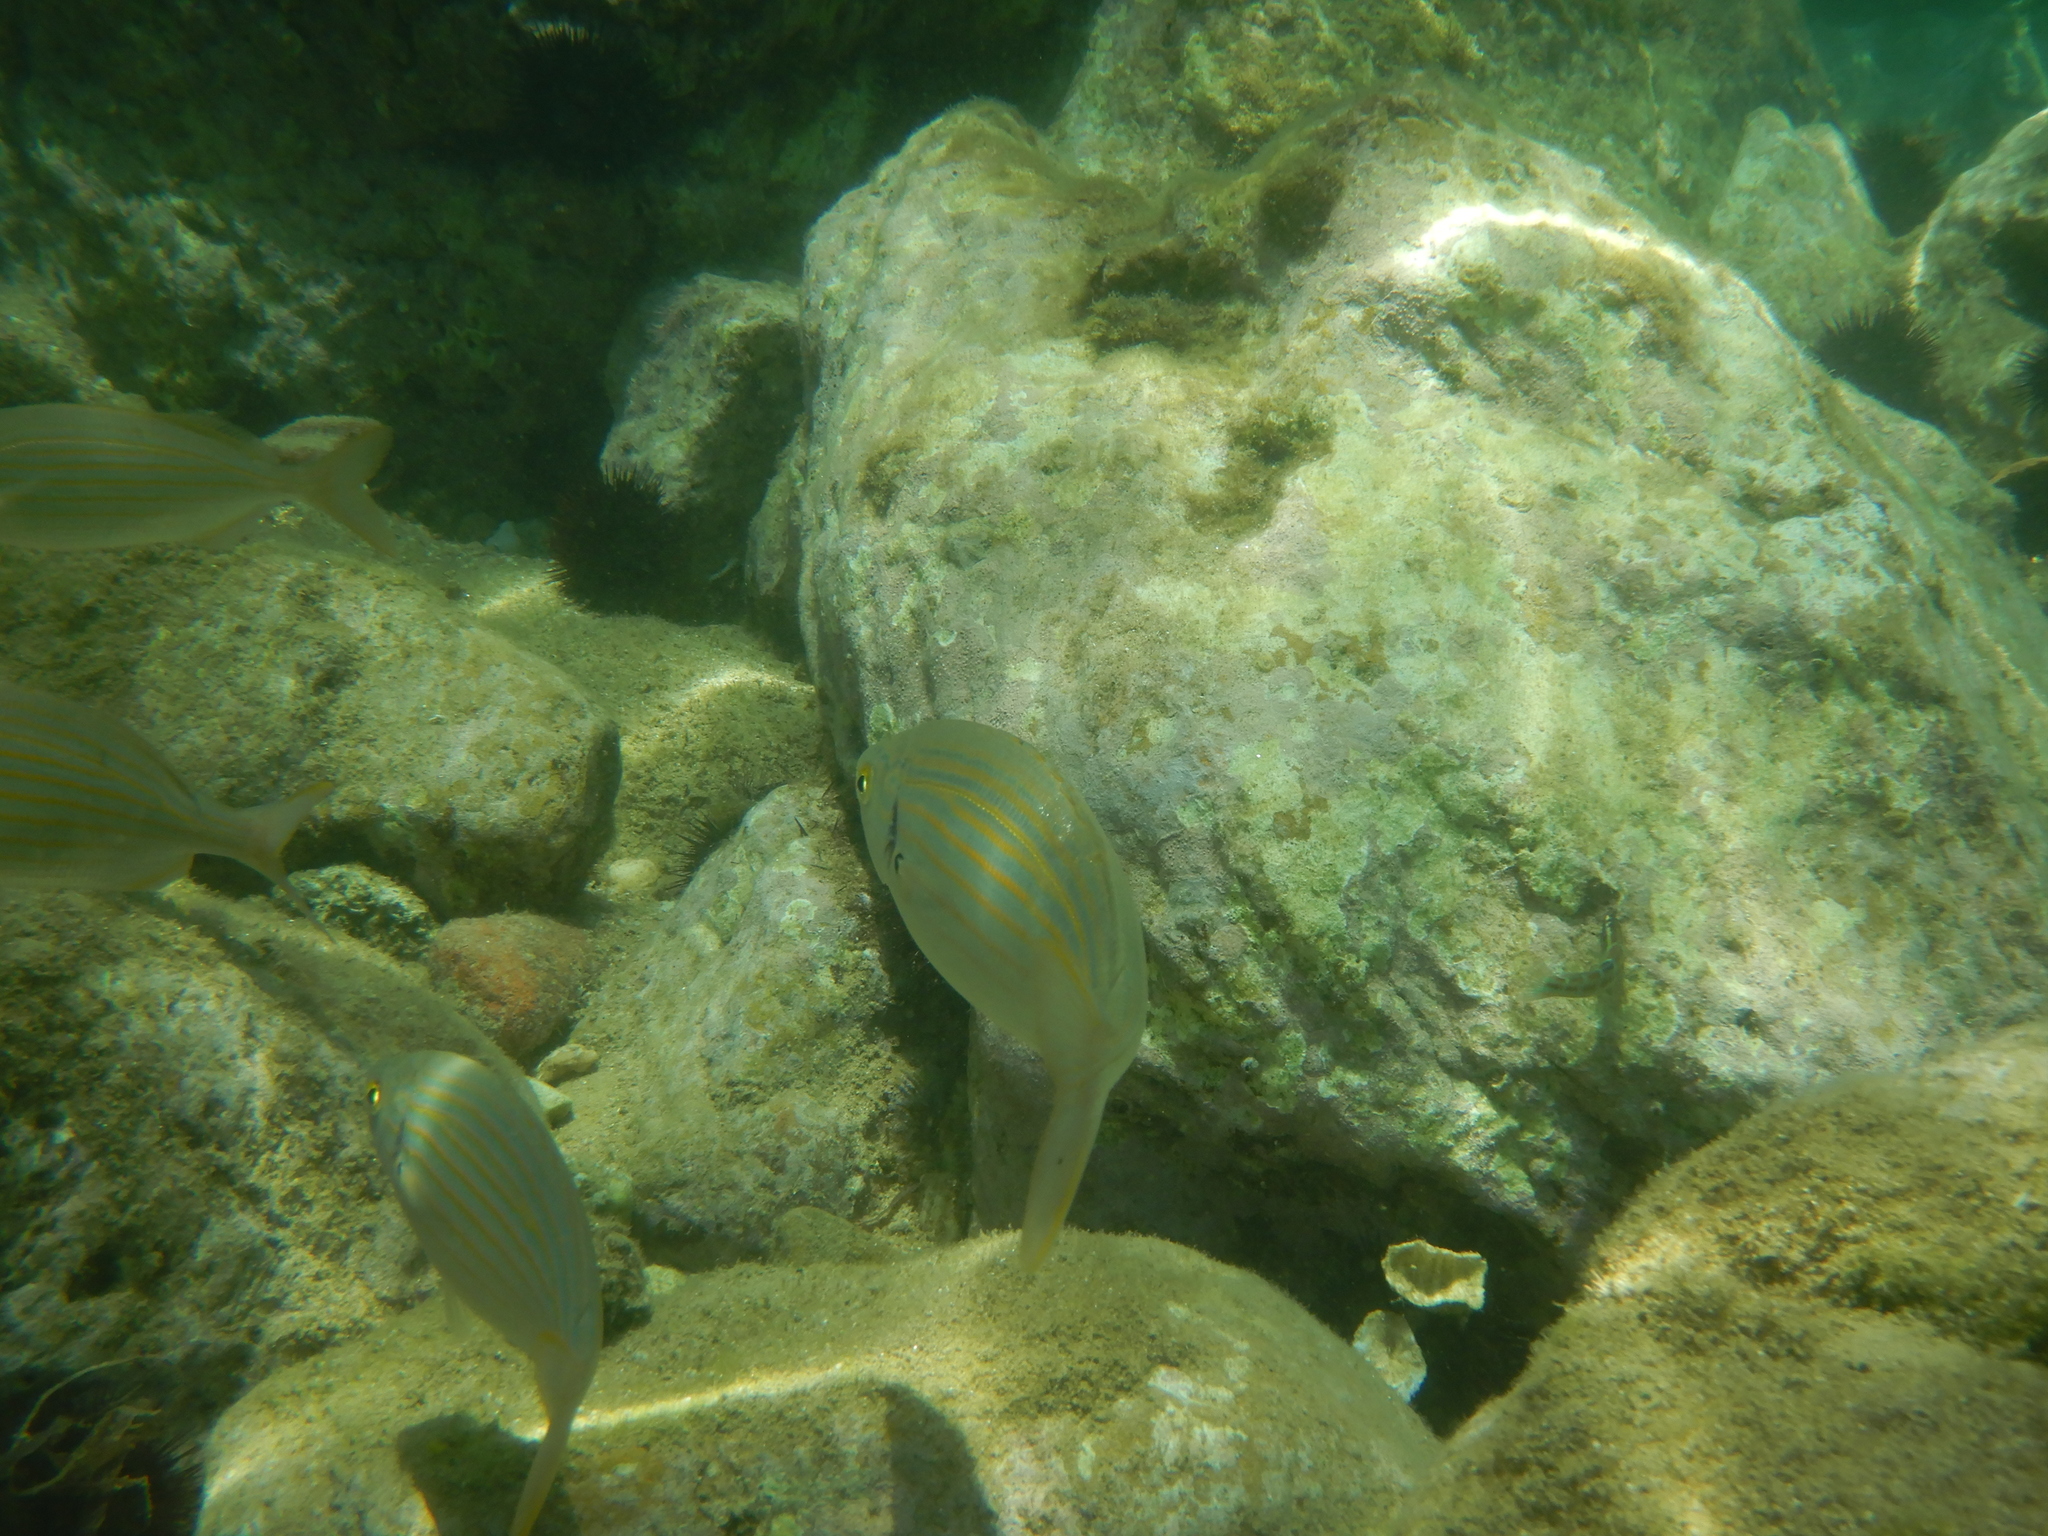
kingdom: Animalia
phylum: Chordata
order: Perciformes
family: Sparidae
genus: Sarpa
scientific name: Sarpa salpa
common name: Salema
